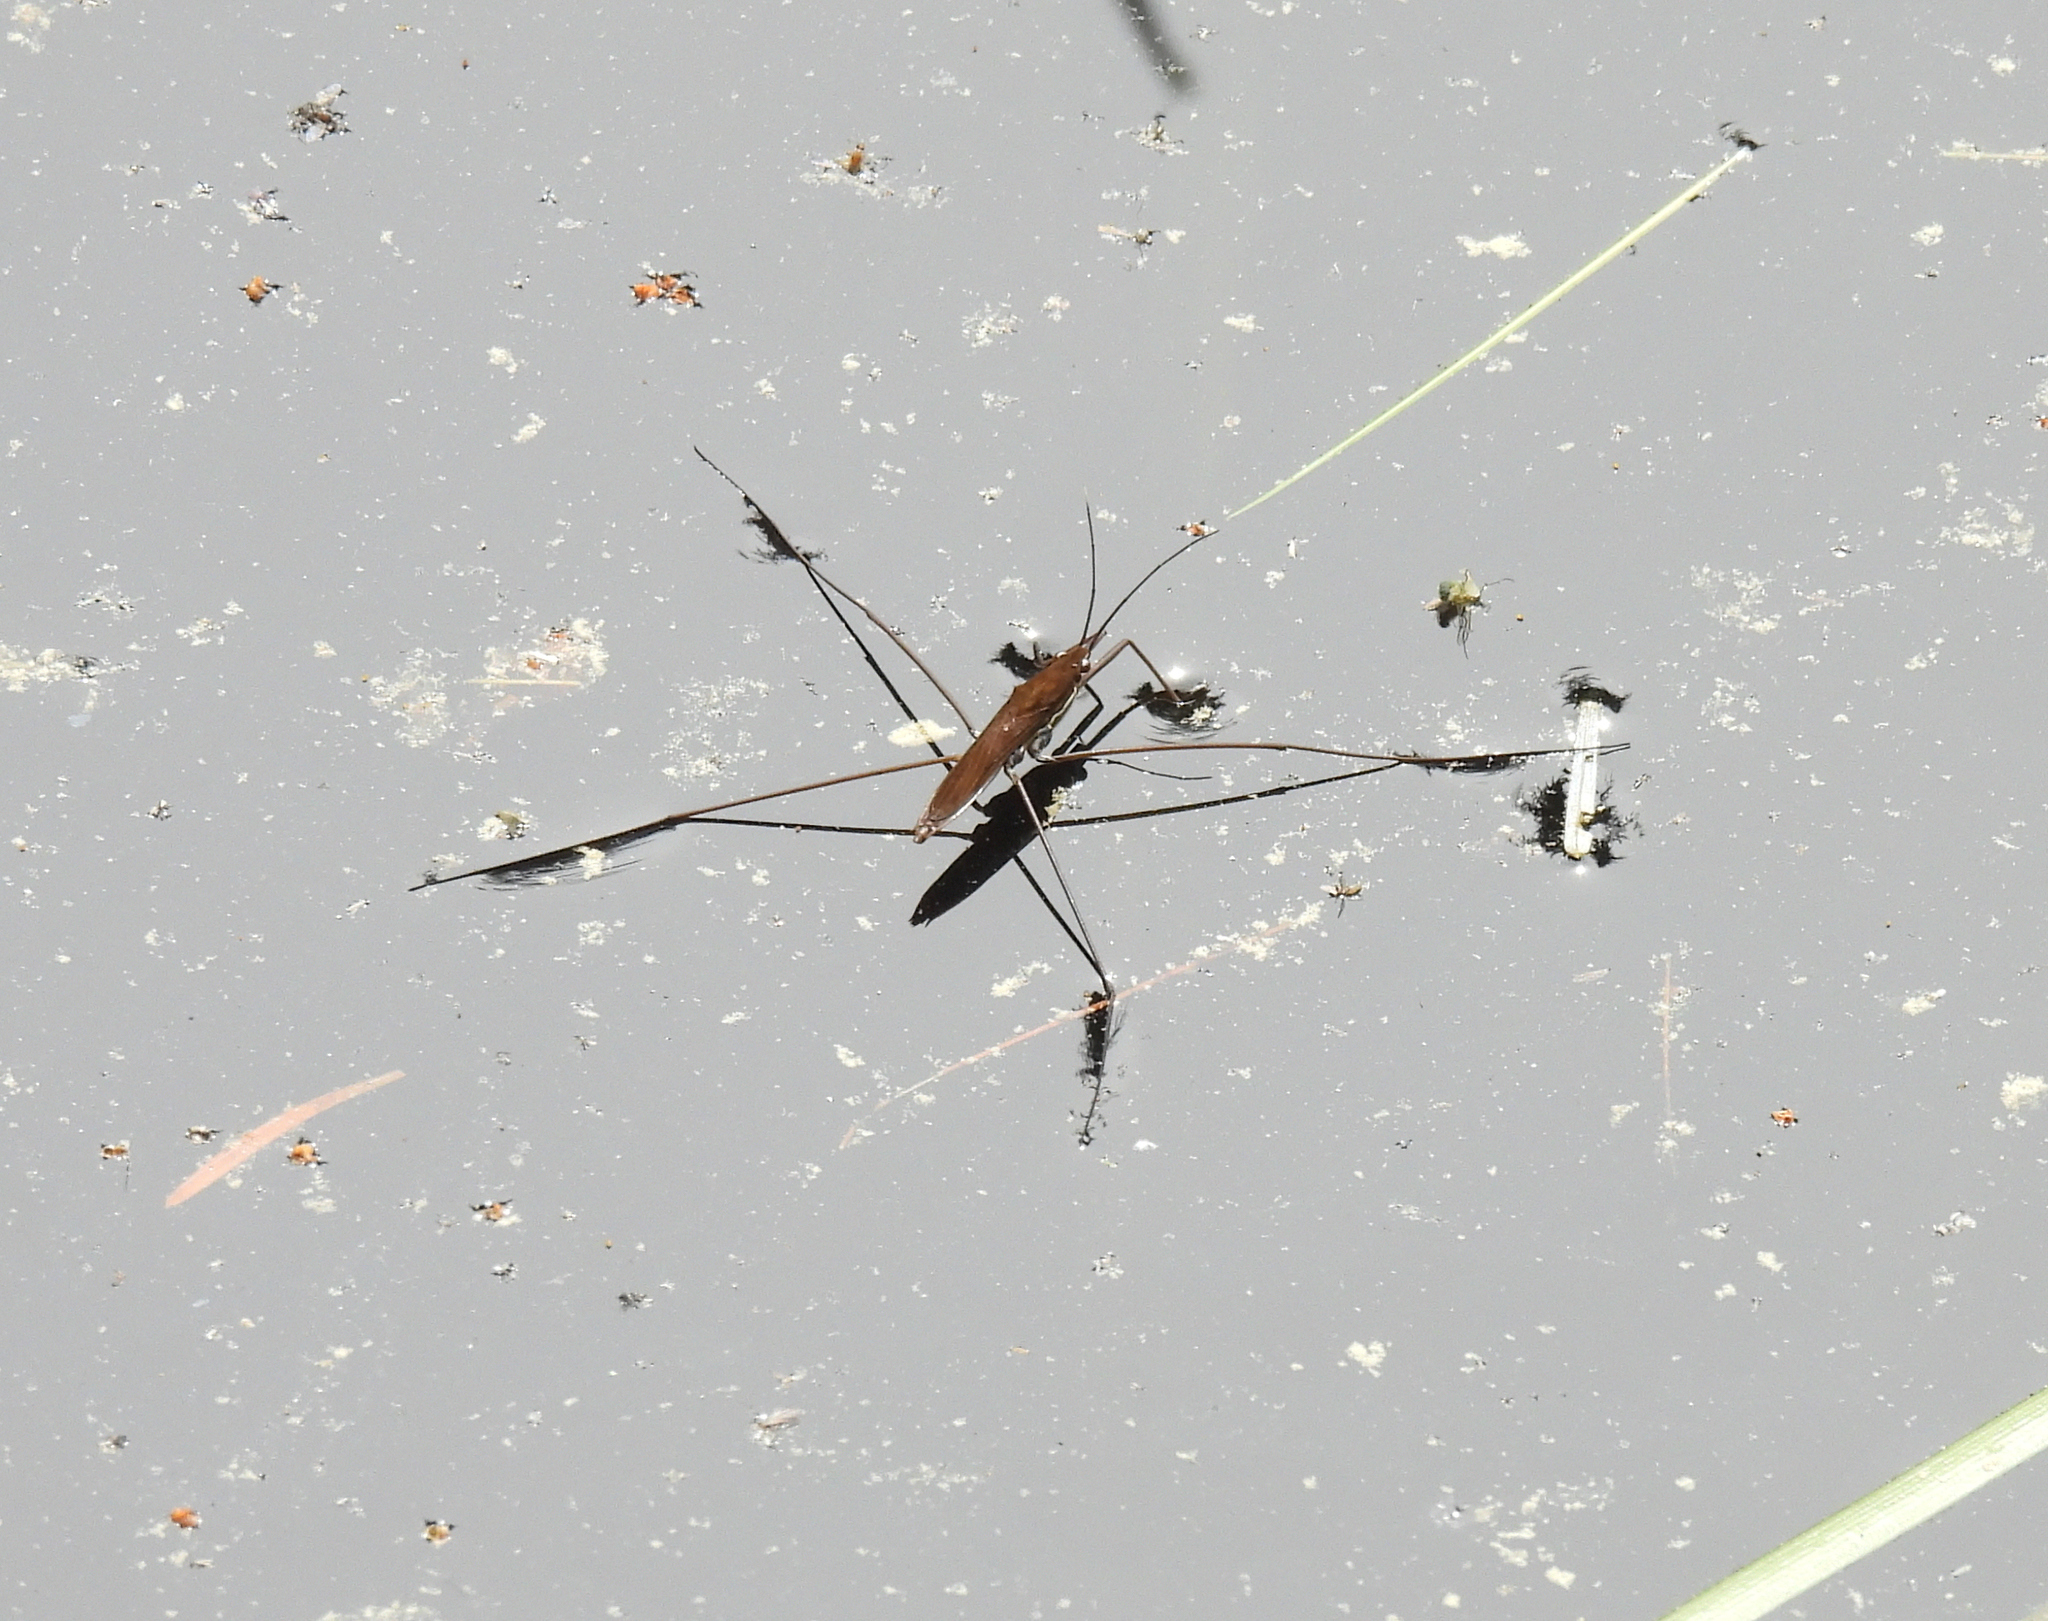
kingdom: Animalia
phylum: Arthropoda
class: Insecta
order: Hemiptera
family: Gerridae
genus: Limnoporus
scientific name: Limnoporus notabilis
